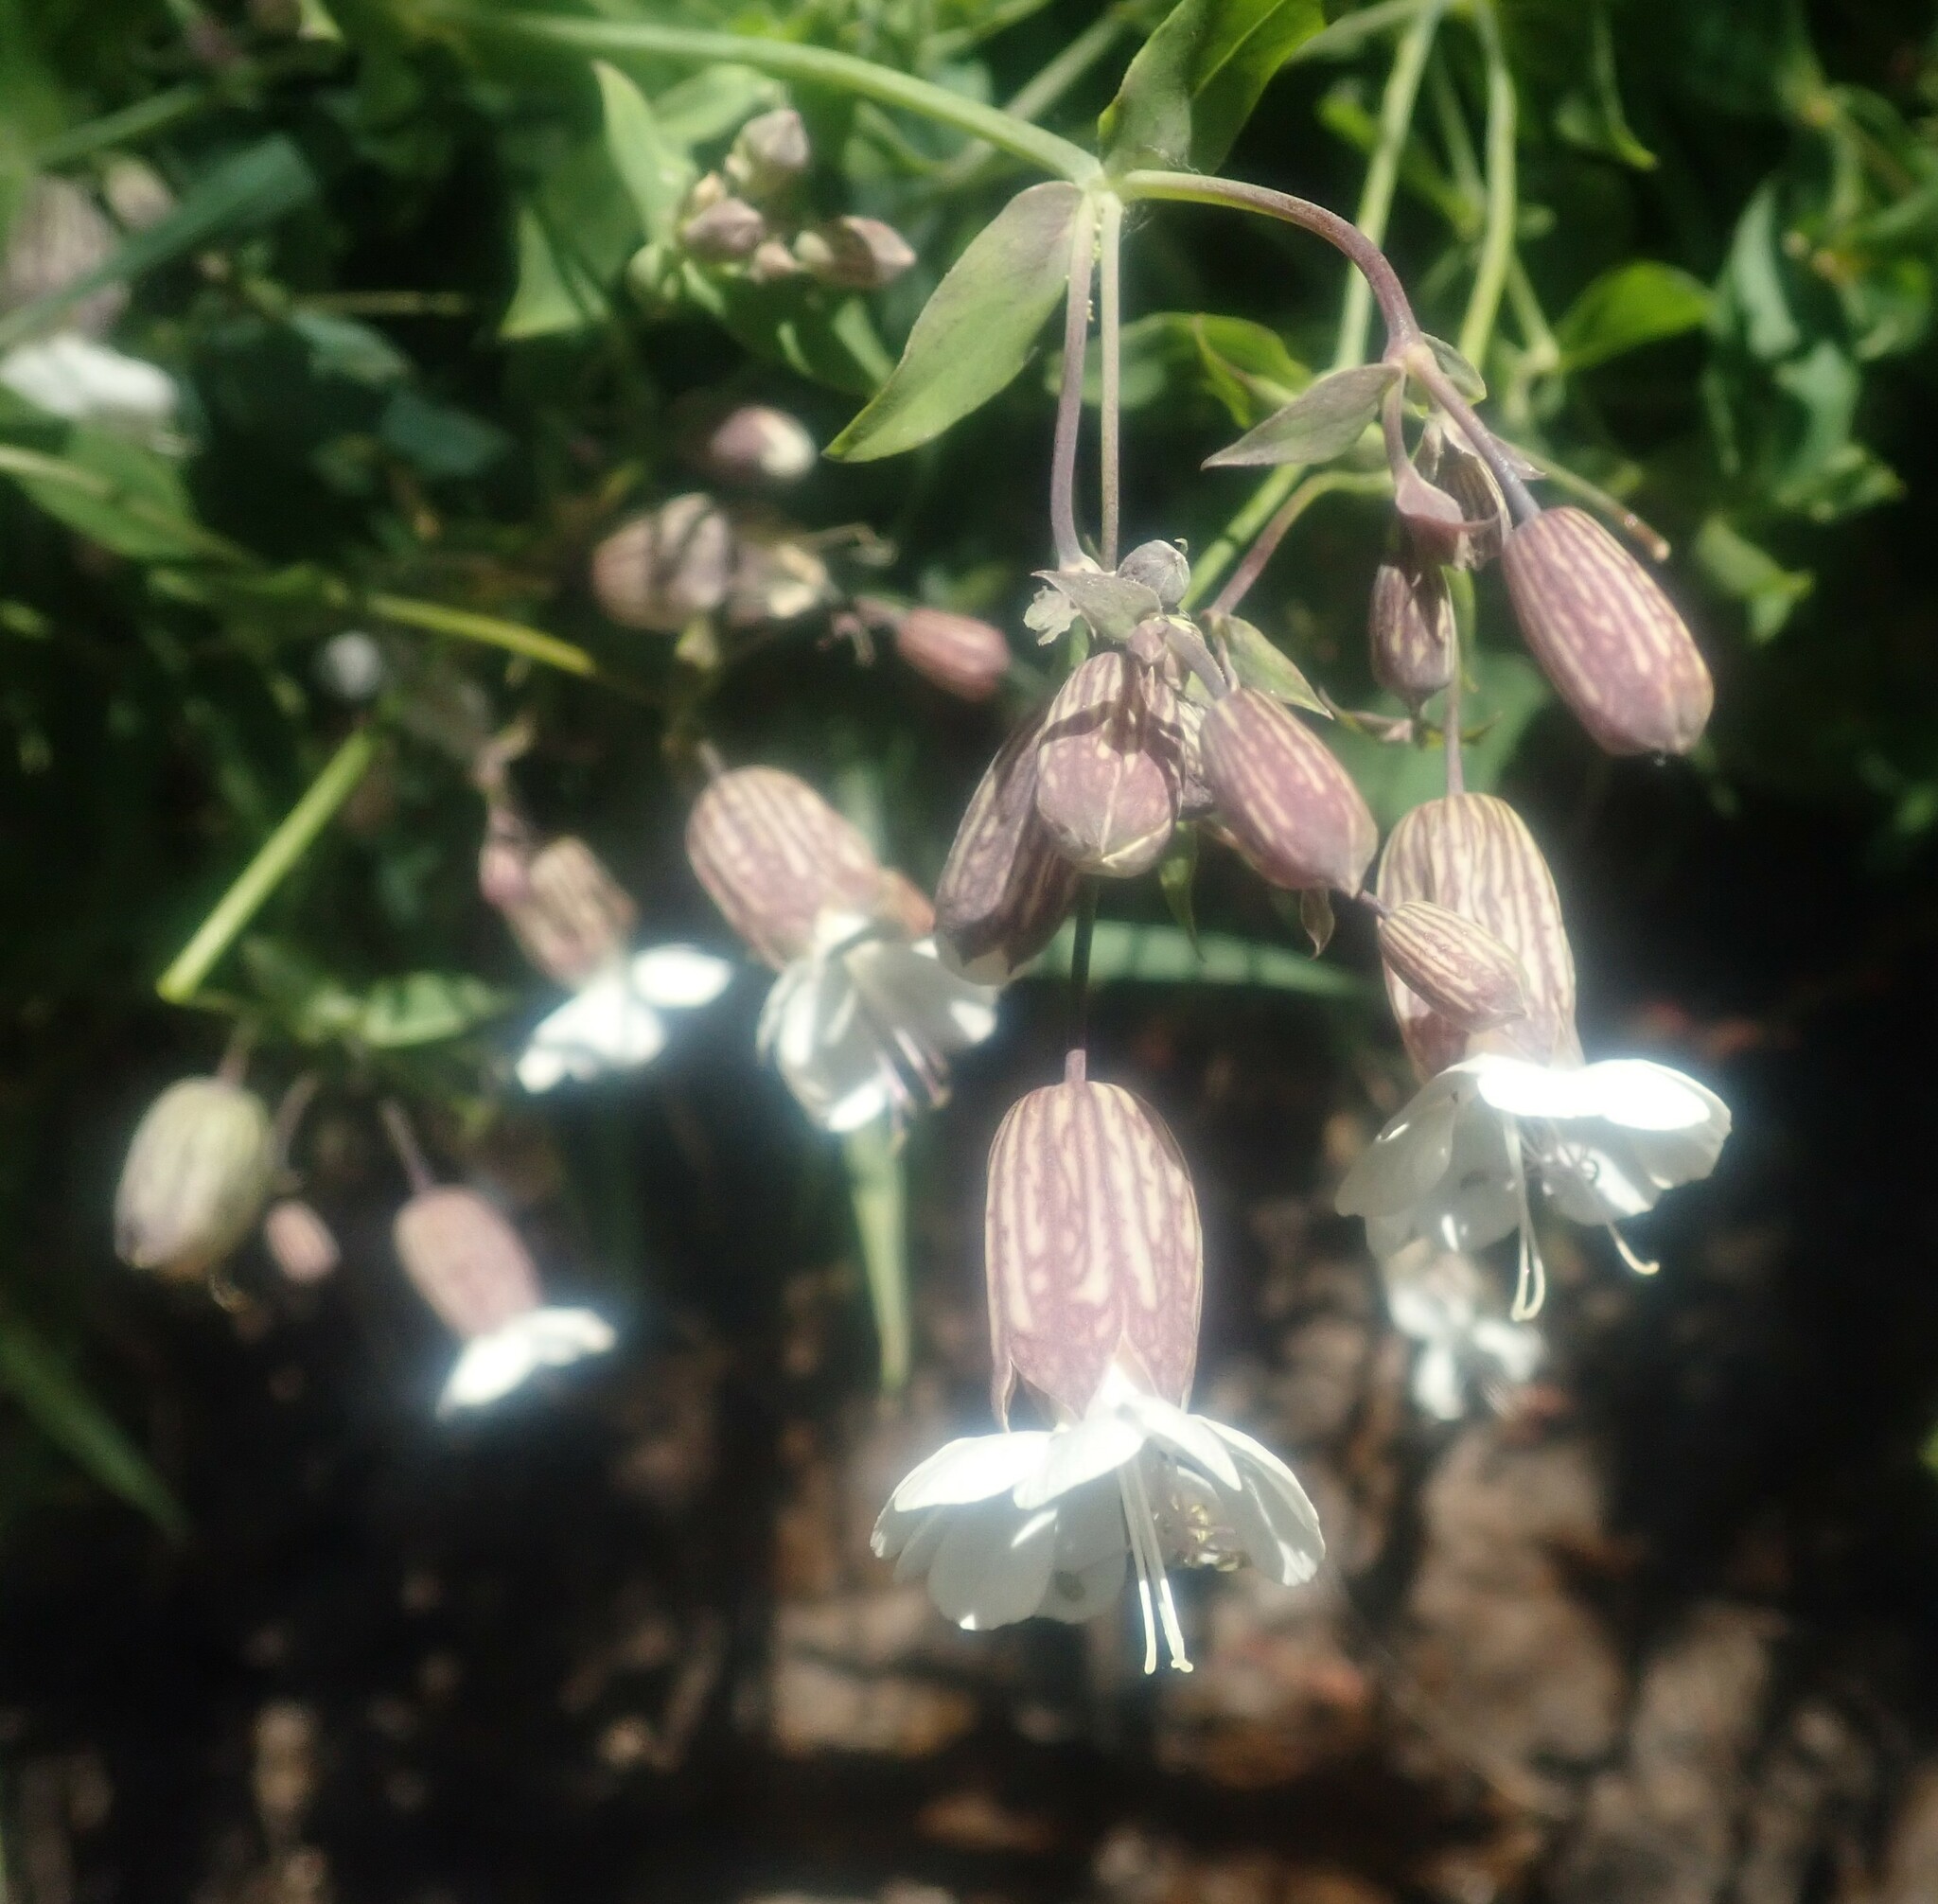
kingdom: Plantae
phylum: Tracheophyta
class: Magnoliopsida
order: Caryophyllales
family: Caryophyllaceae
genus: Silene
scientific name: Silene vulgaris
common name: Bladder campion
